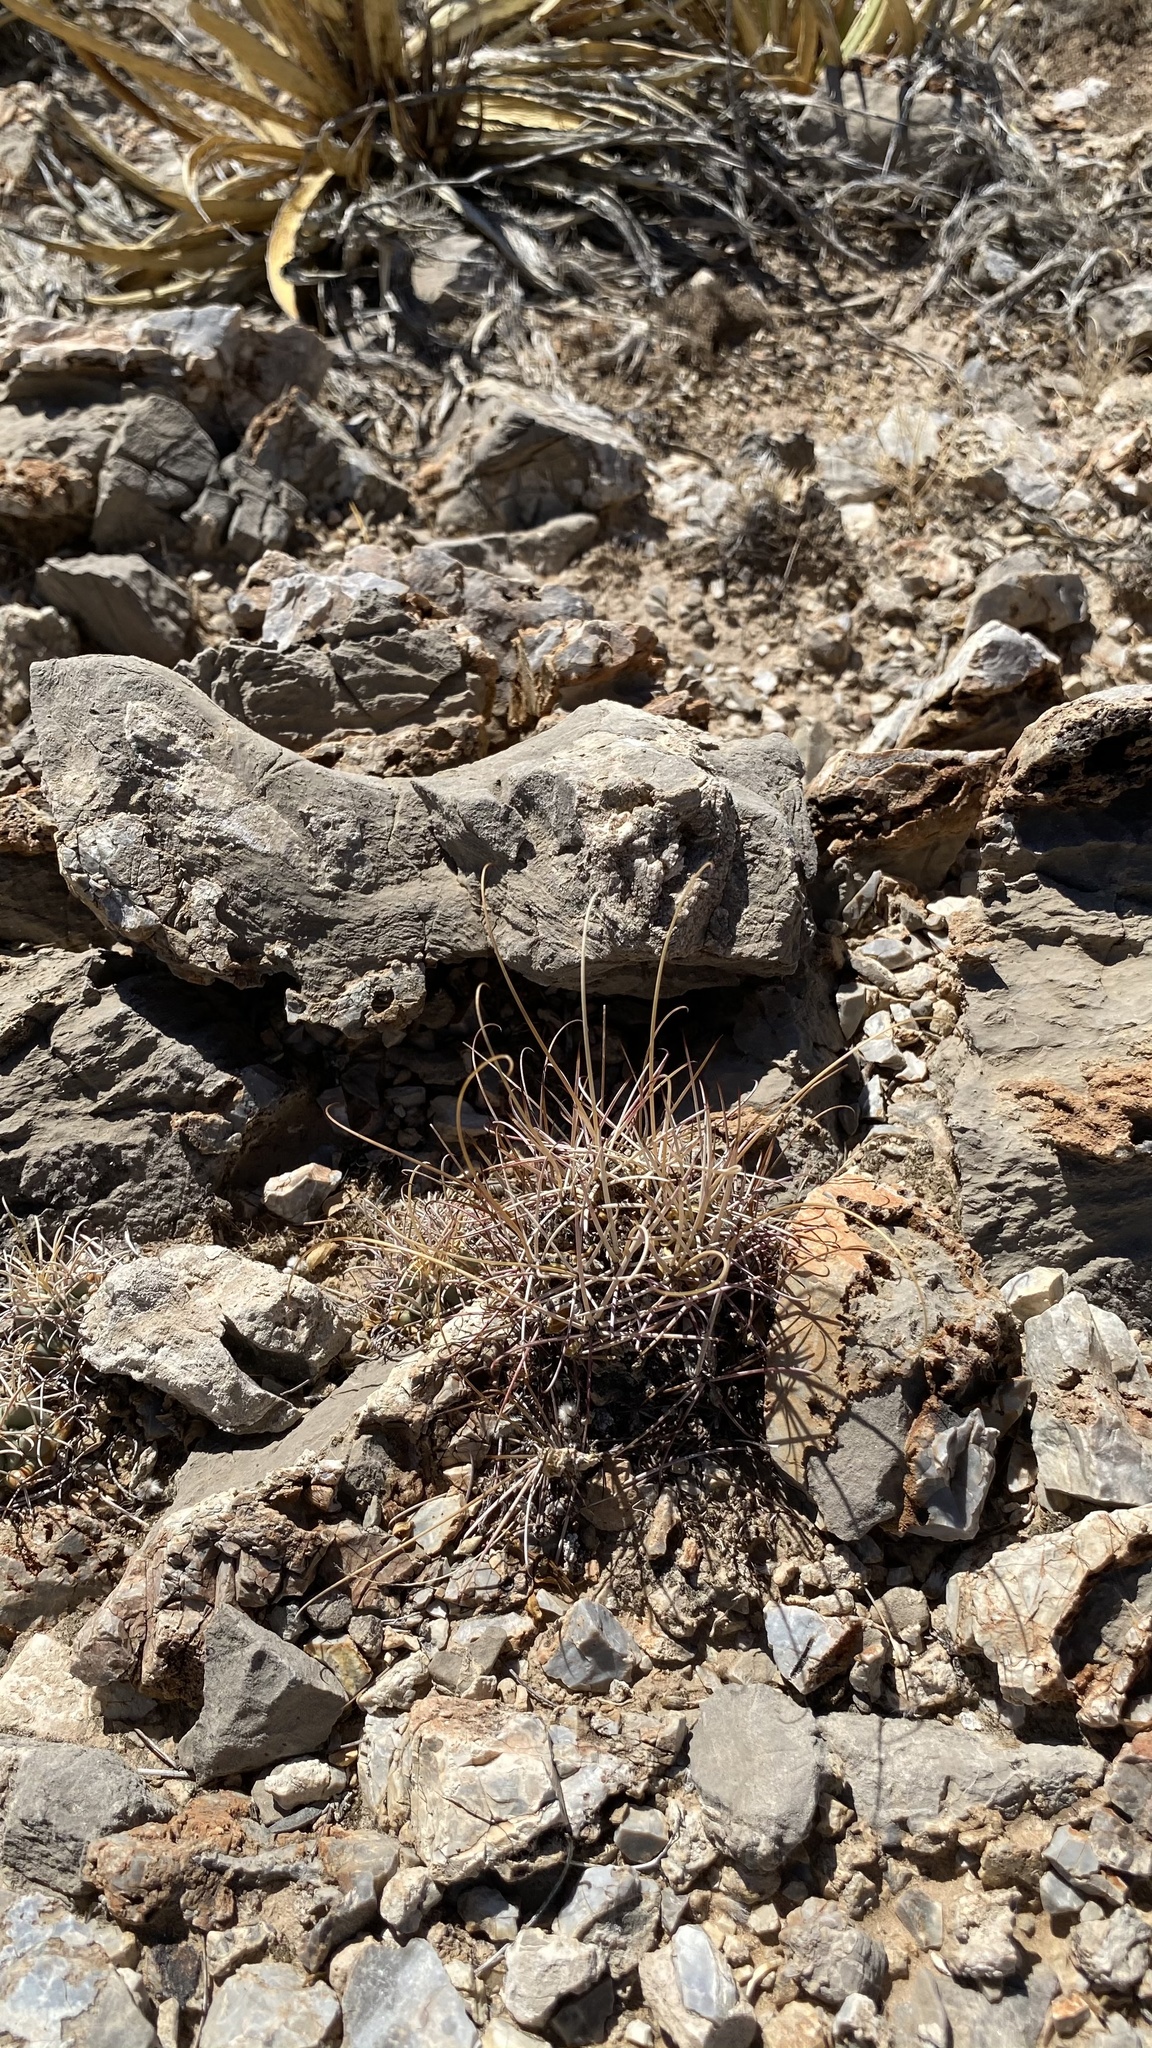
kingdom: Plantae
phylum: Tracheophyta
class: Magnoliopsida
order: Caryophyllales
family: Cactaceae
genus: Ferocactus
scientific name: Ferocactus uncinatus
